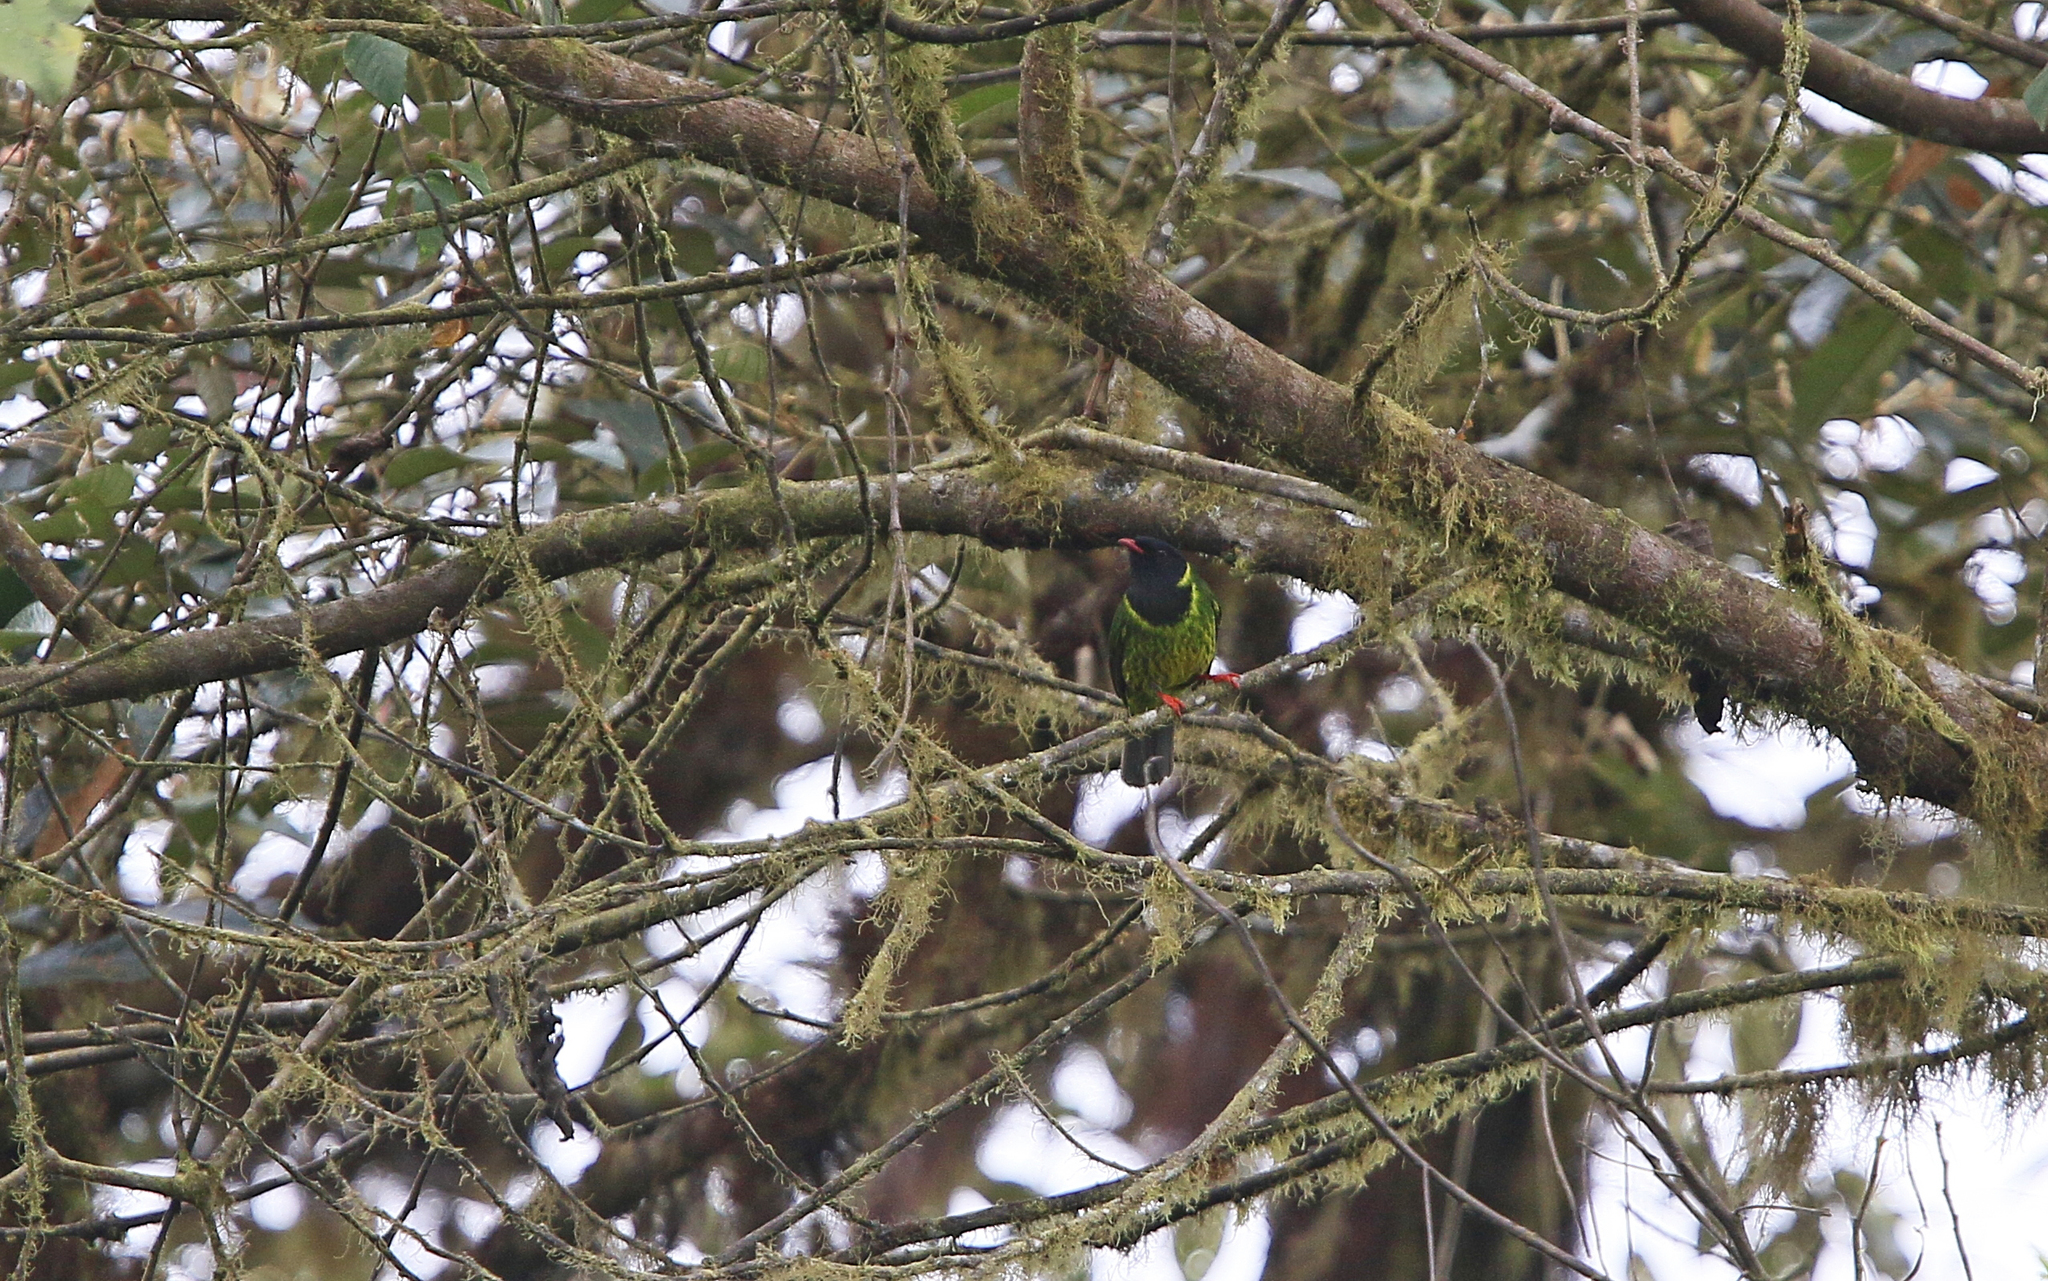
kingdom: Animalia
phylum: Chordata
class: Aves
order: Passeriformes
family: Cotingidae
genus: Pipreola
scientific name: Pipreola riefferii
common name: Green-and-black fruiteater
